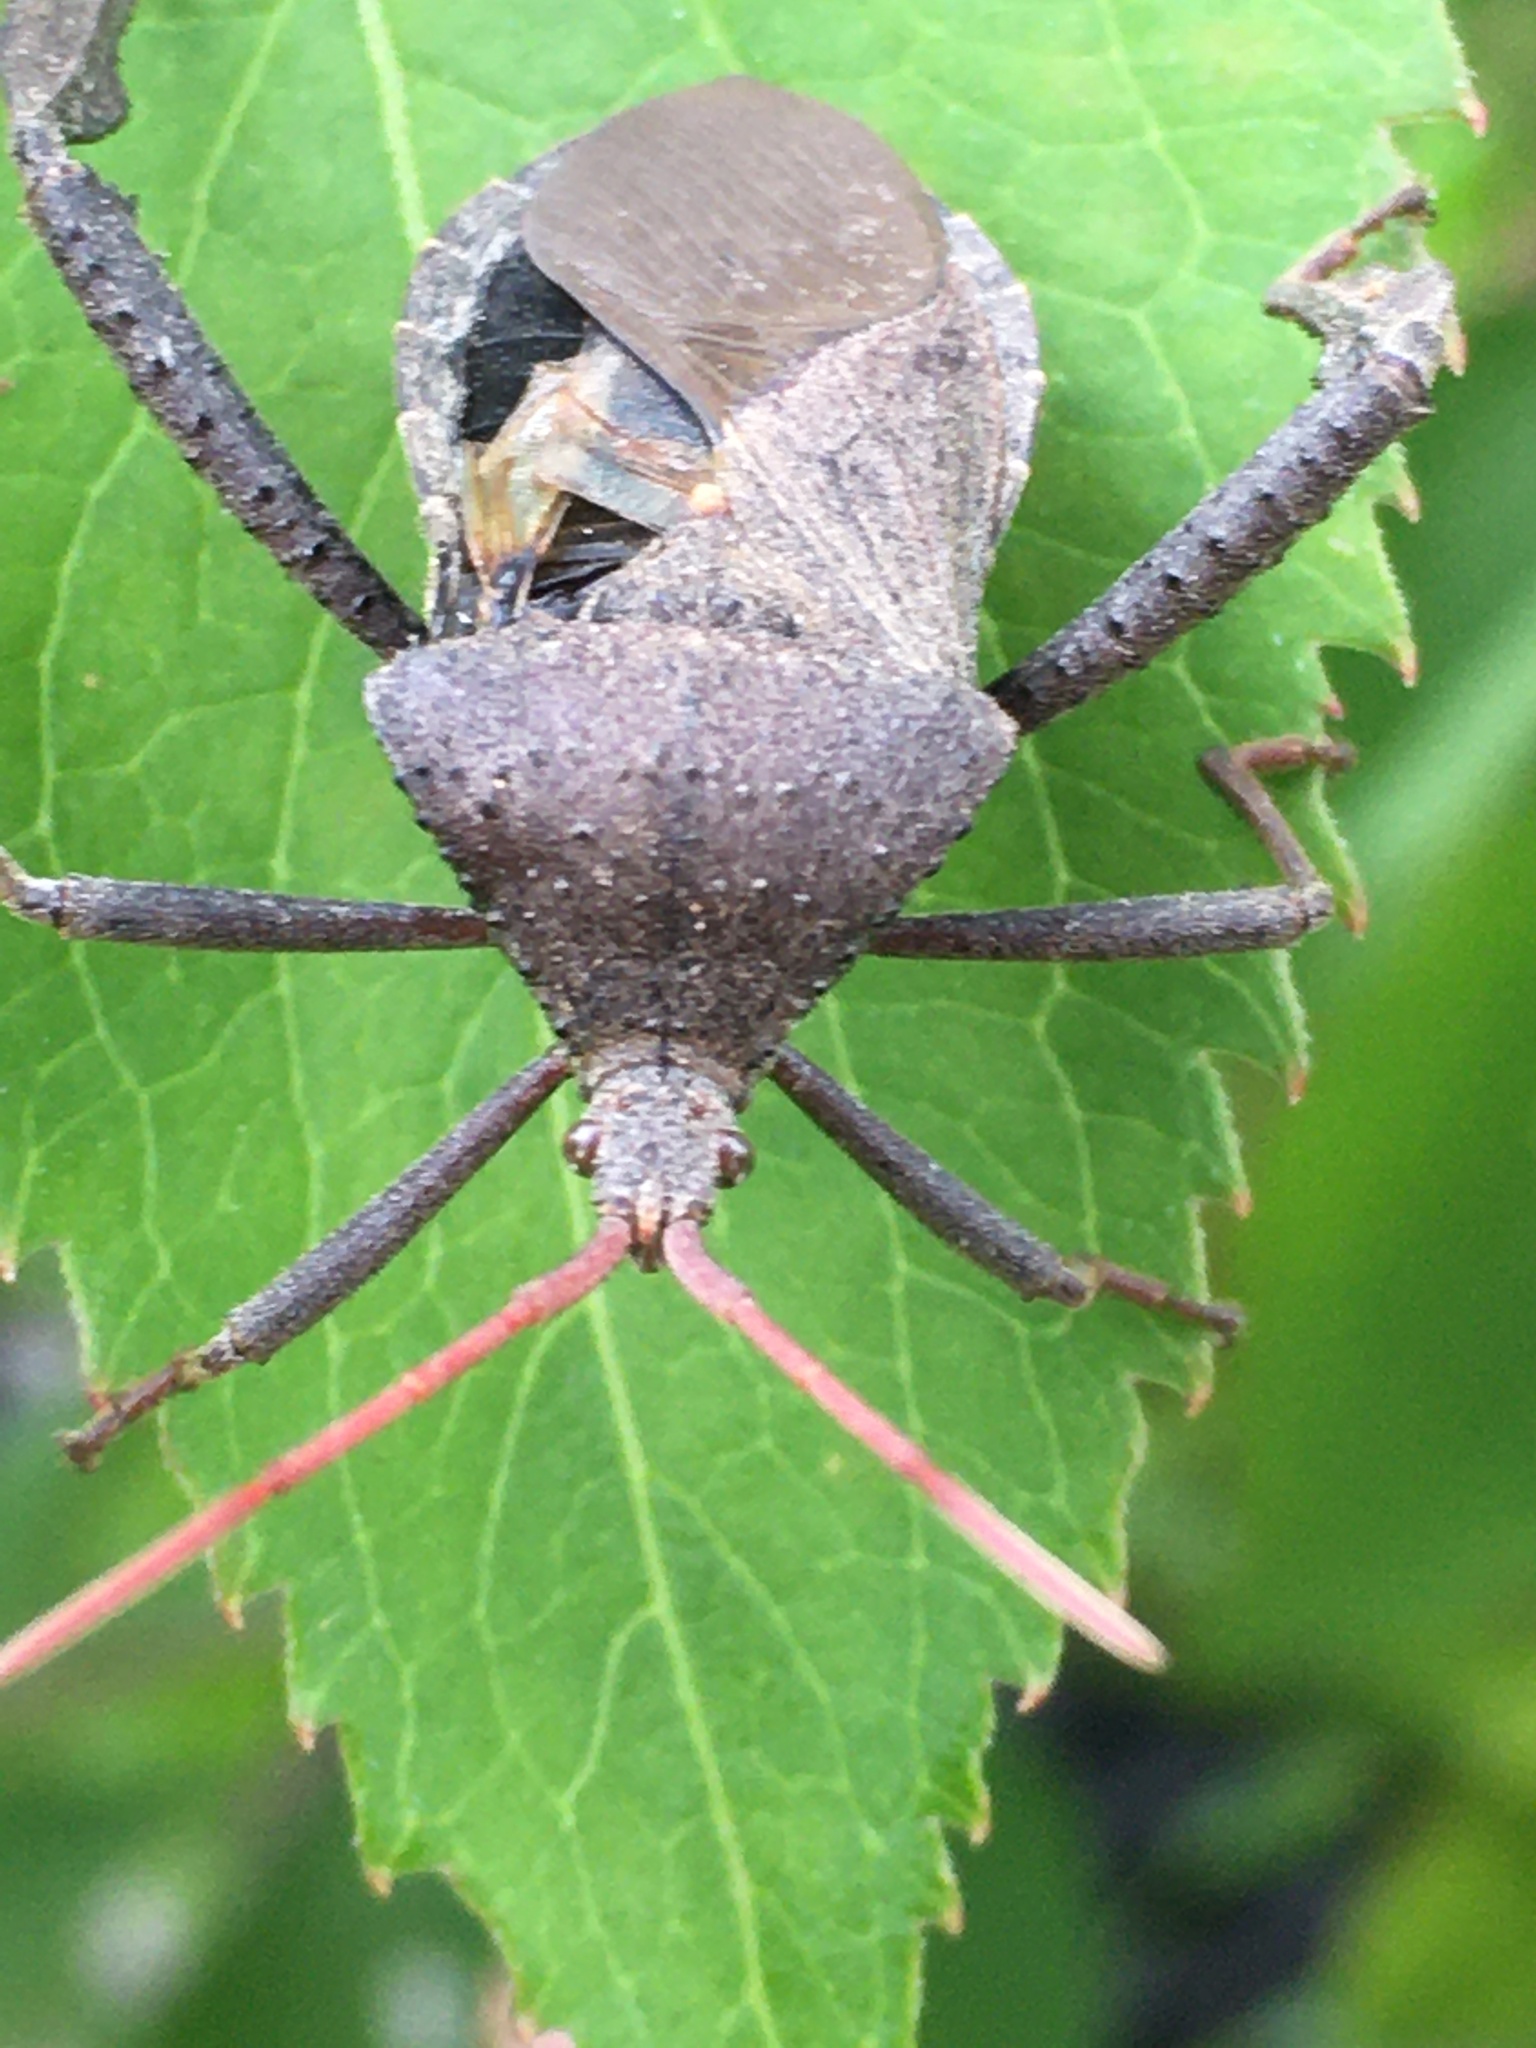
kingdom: Animalia
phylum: Arthropoda
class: Insecta
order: Hemiptera
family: Coreidae
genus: Acanthocephala
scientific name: Acanthocephala femorata
